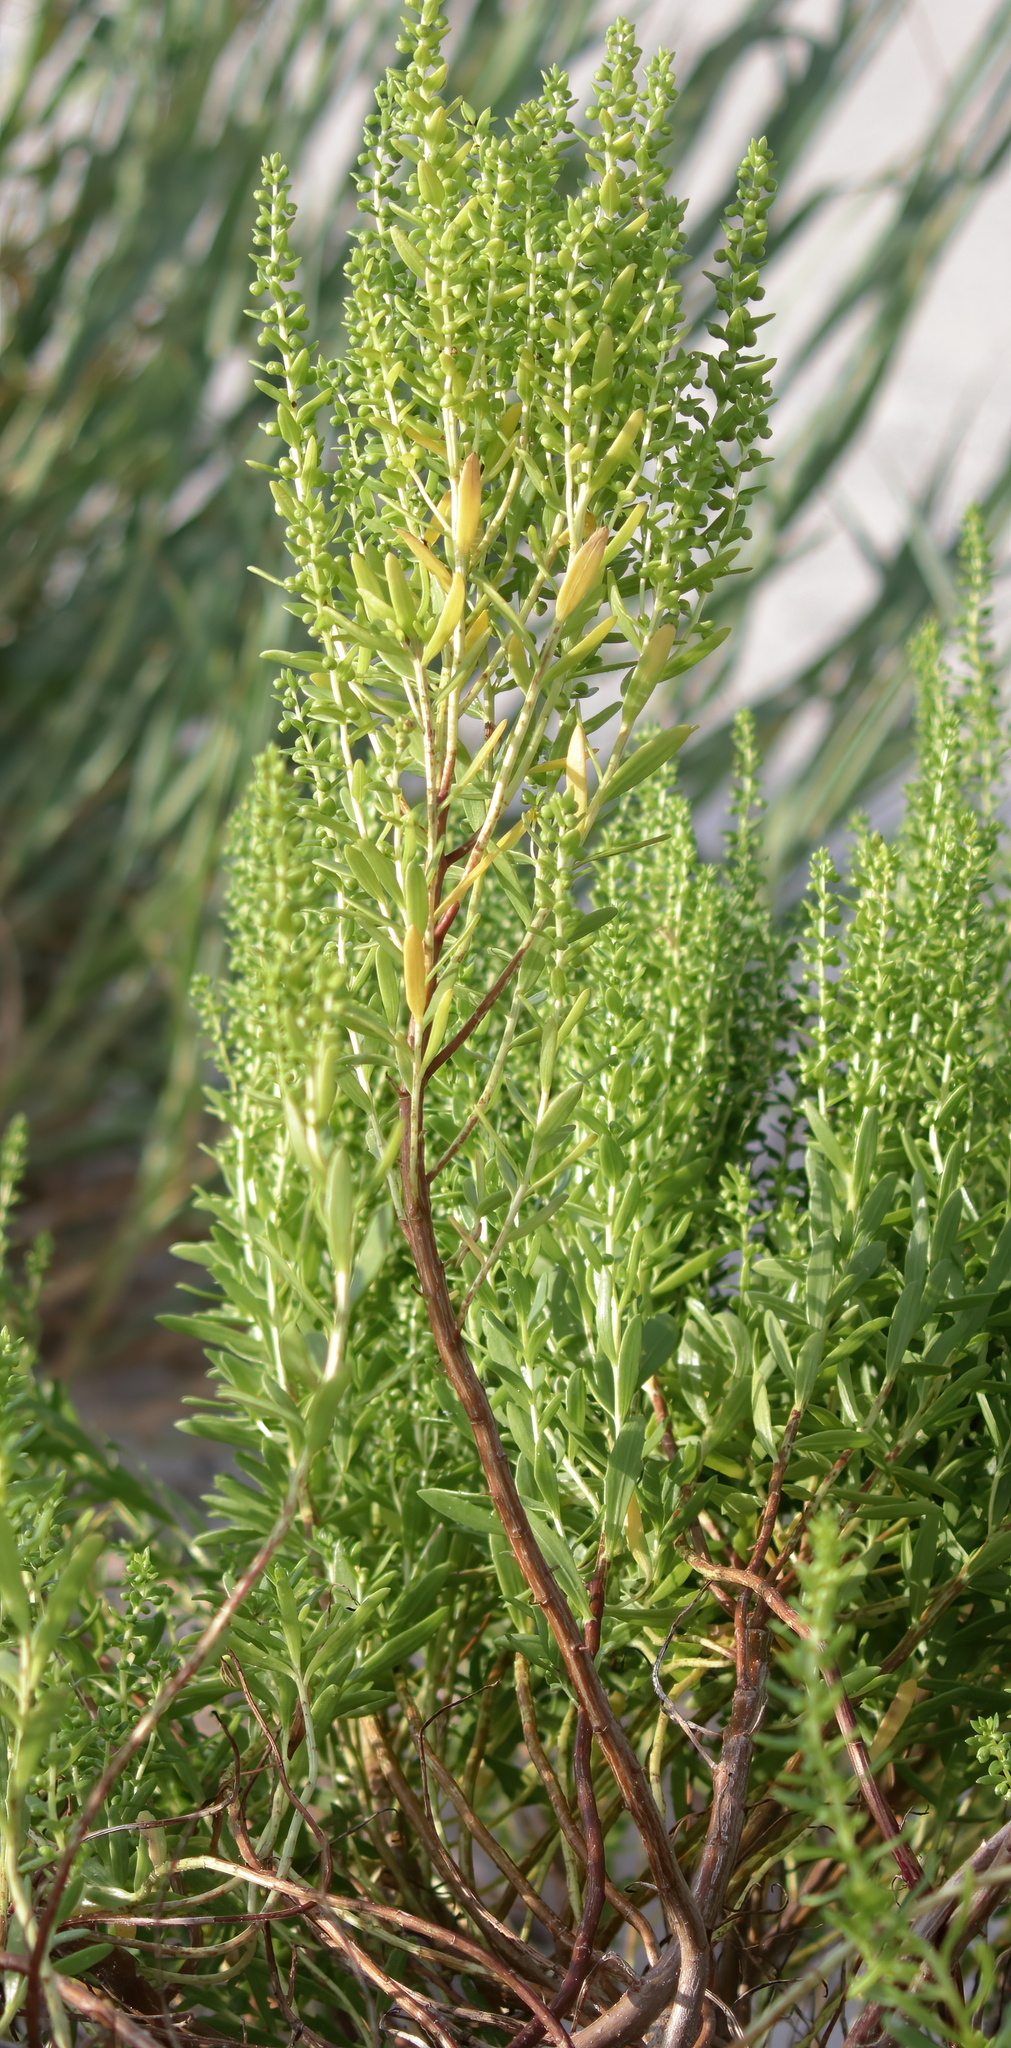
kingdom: Plantae
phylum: Tracheophyta
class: Magnoliopsida
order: Asterales
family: Asteraceae
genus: Iva
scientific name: Iva imbricata
